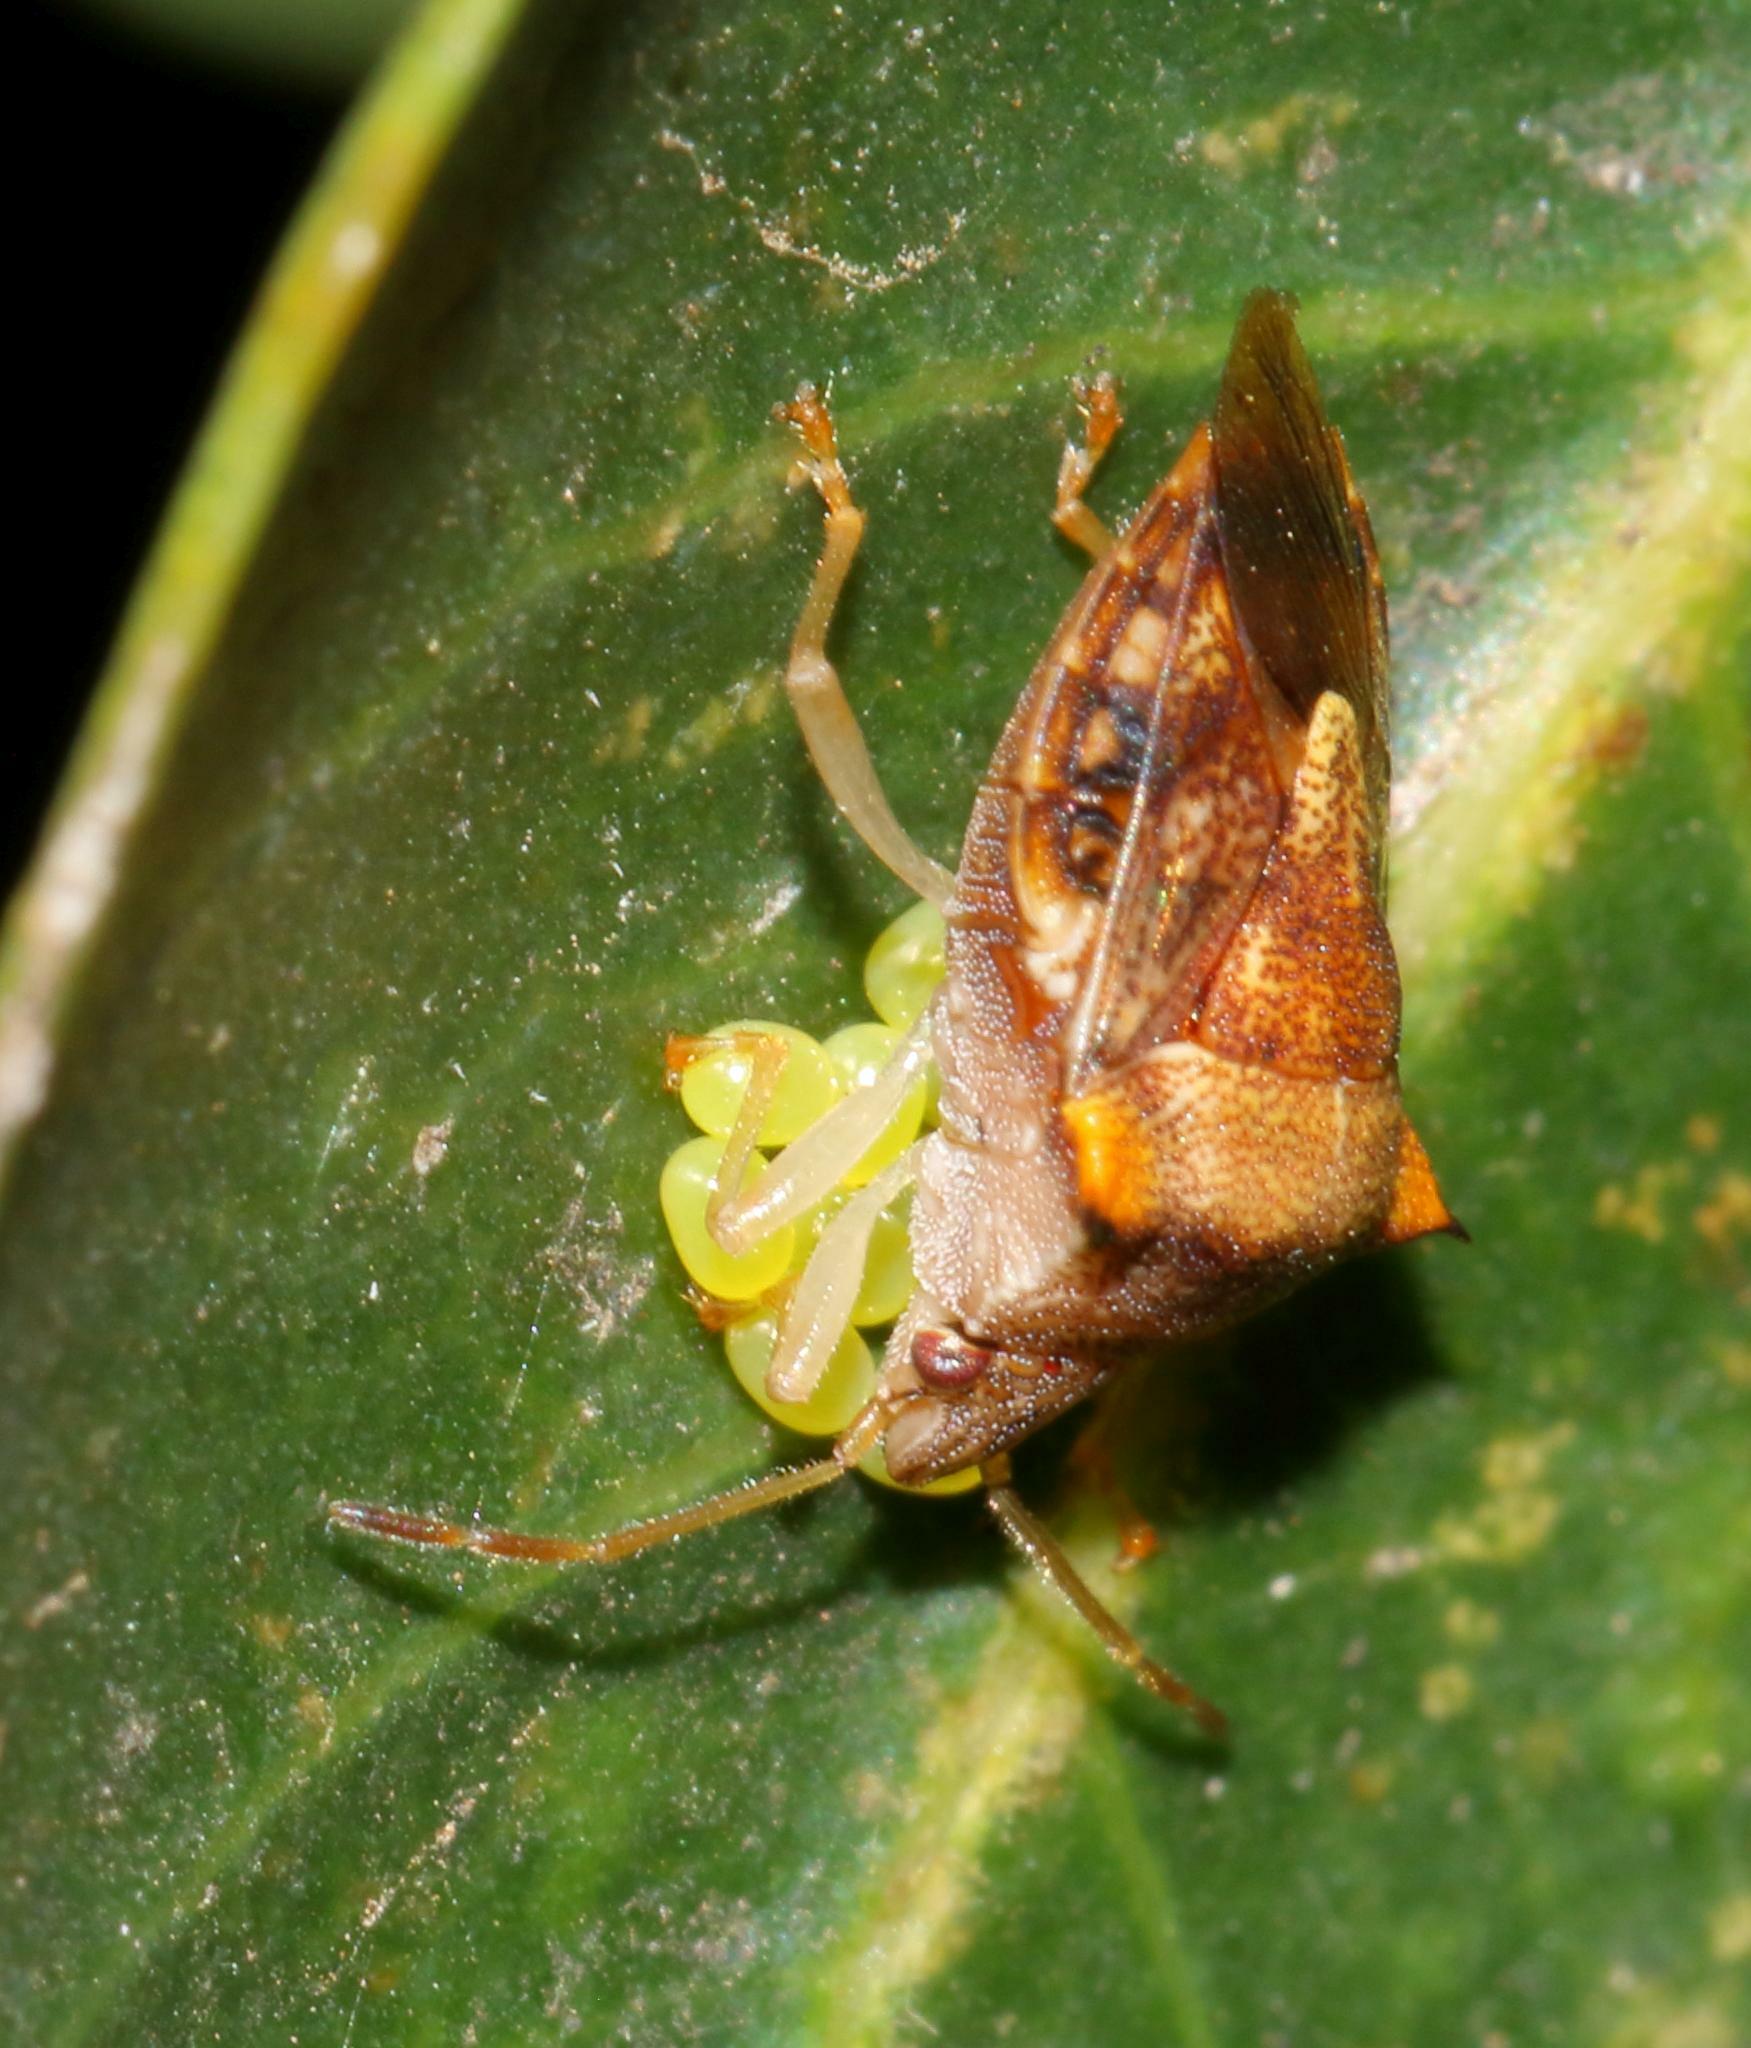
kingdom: Animalia
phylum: Arthropoda
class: Insecta
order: Hemiptera
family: Acanthosomatidae
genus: Uhlunga
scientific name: Uhlunga typica
